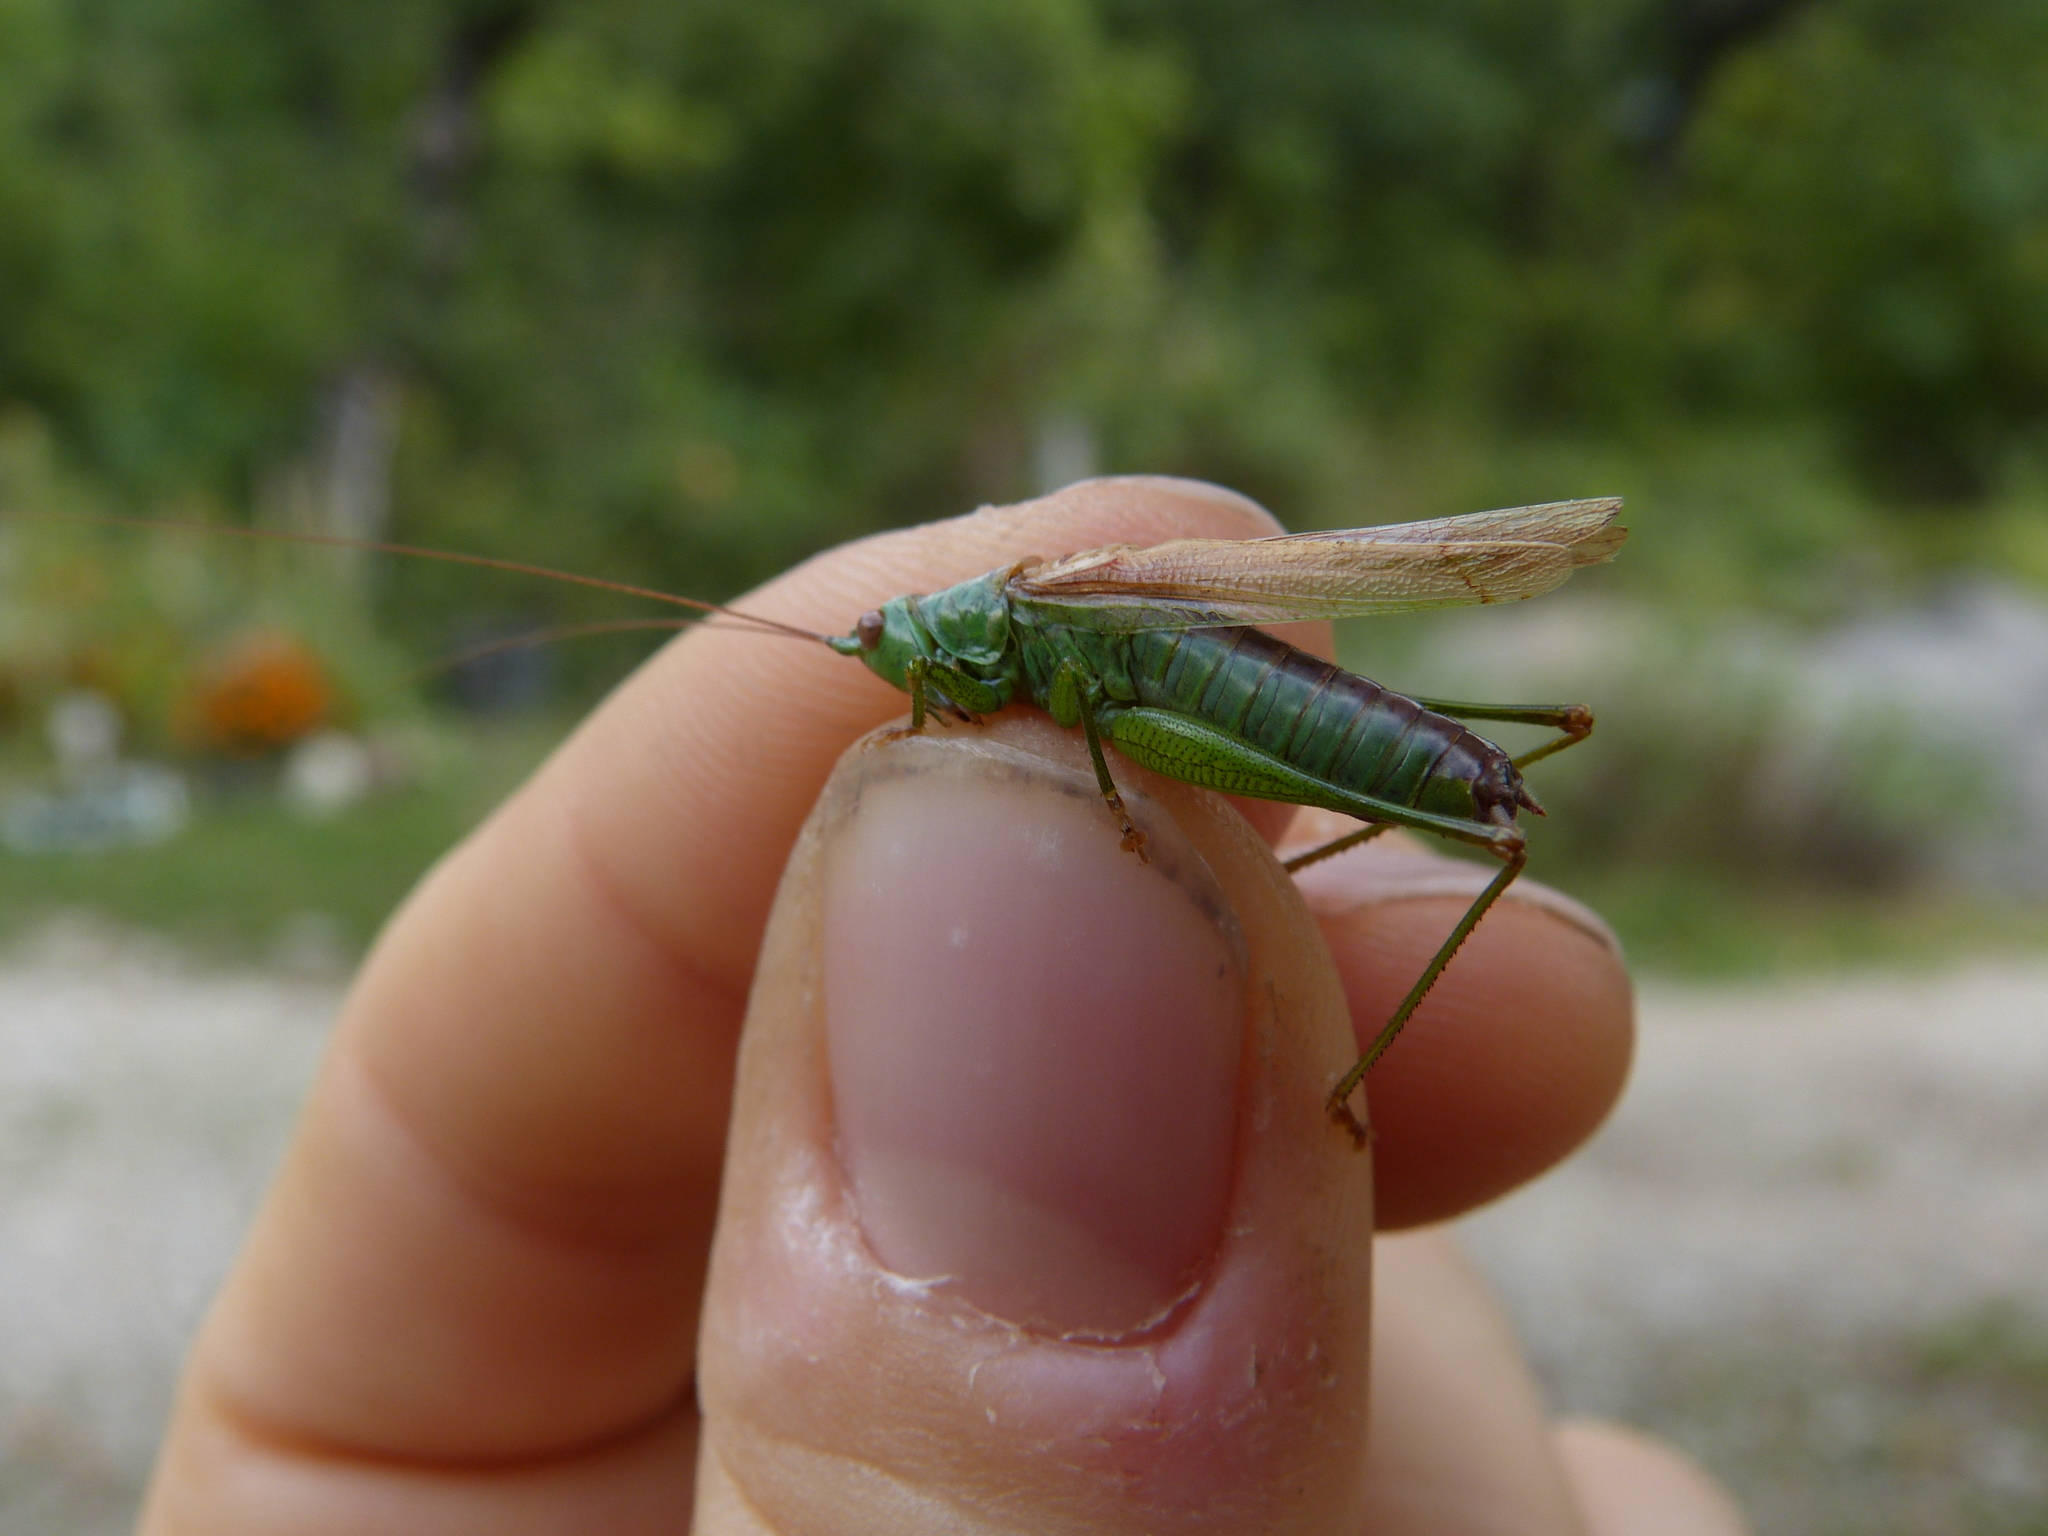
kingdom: Animalia
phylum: Arthropoda
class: Insecta
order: Orthoptera
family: Tettigoniidae
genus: Conocephalus
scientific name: Conocephalus fuscus
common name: Long-winged conehead
